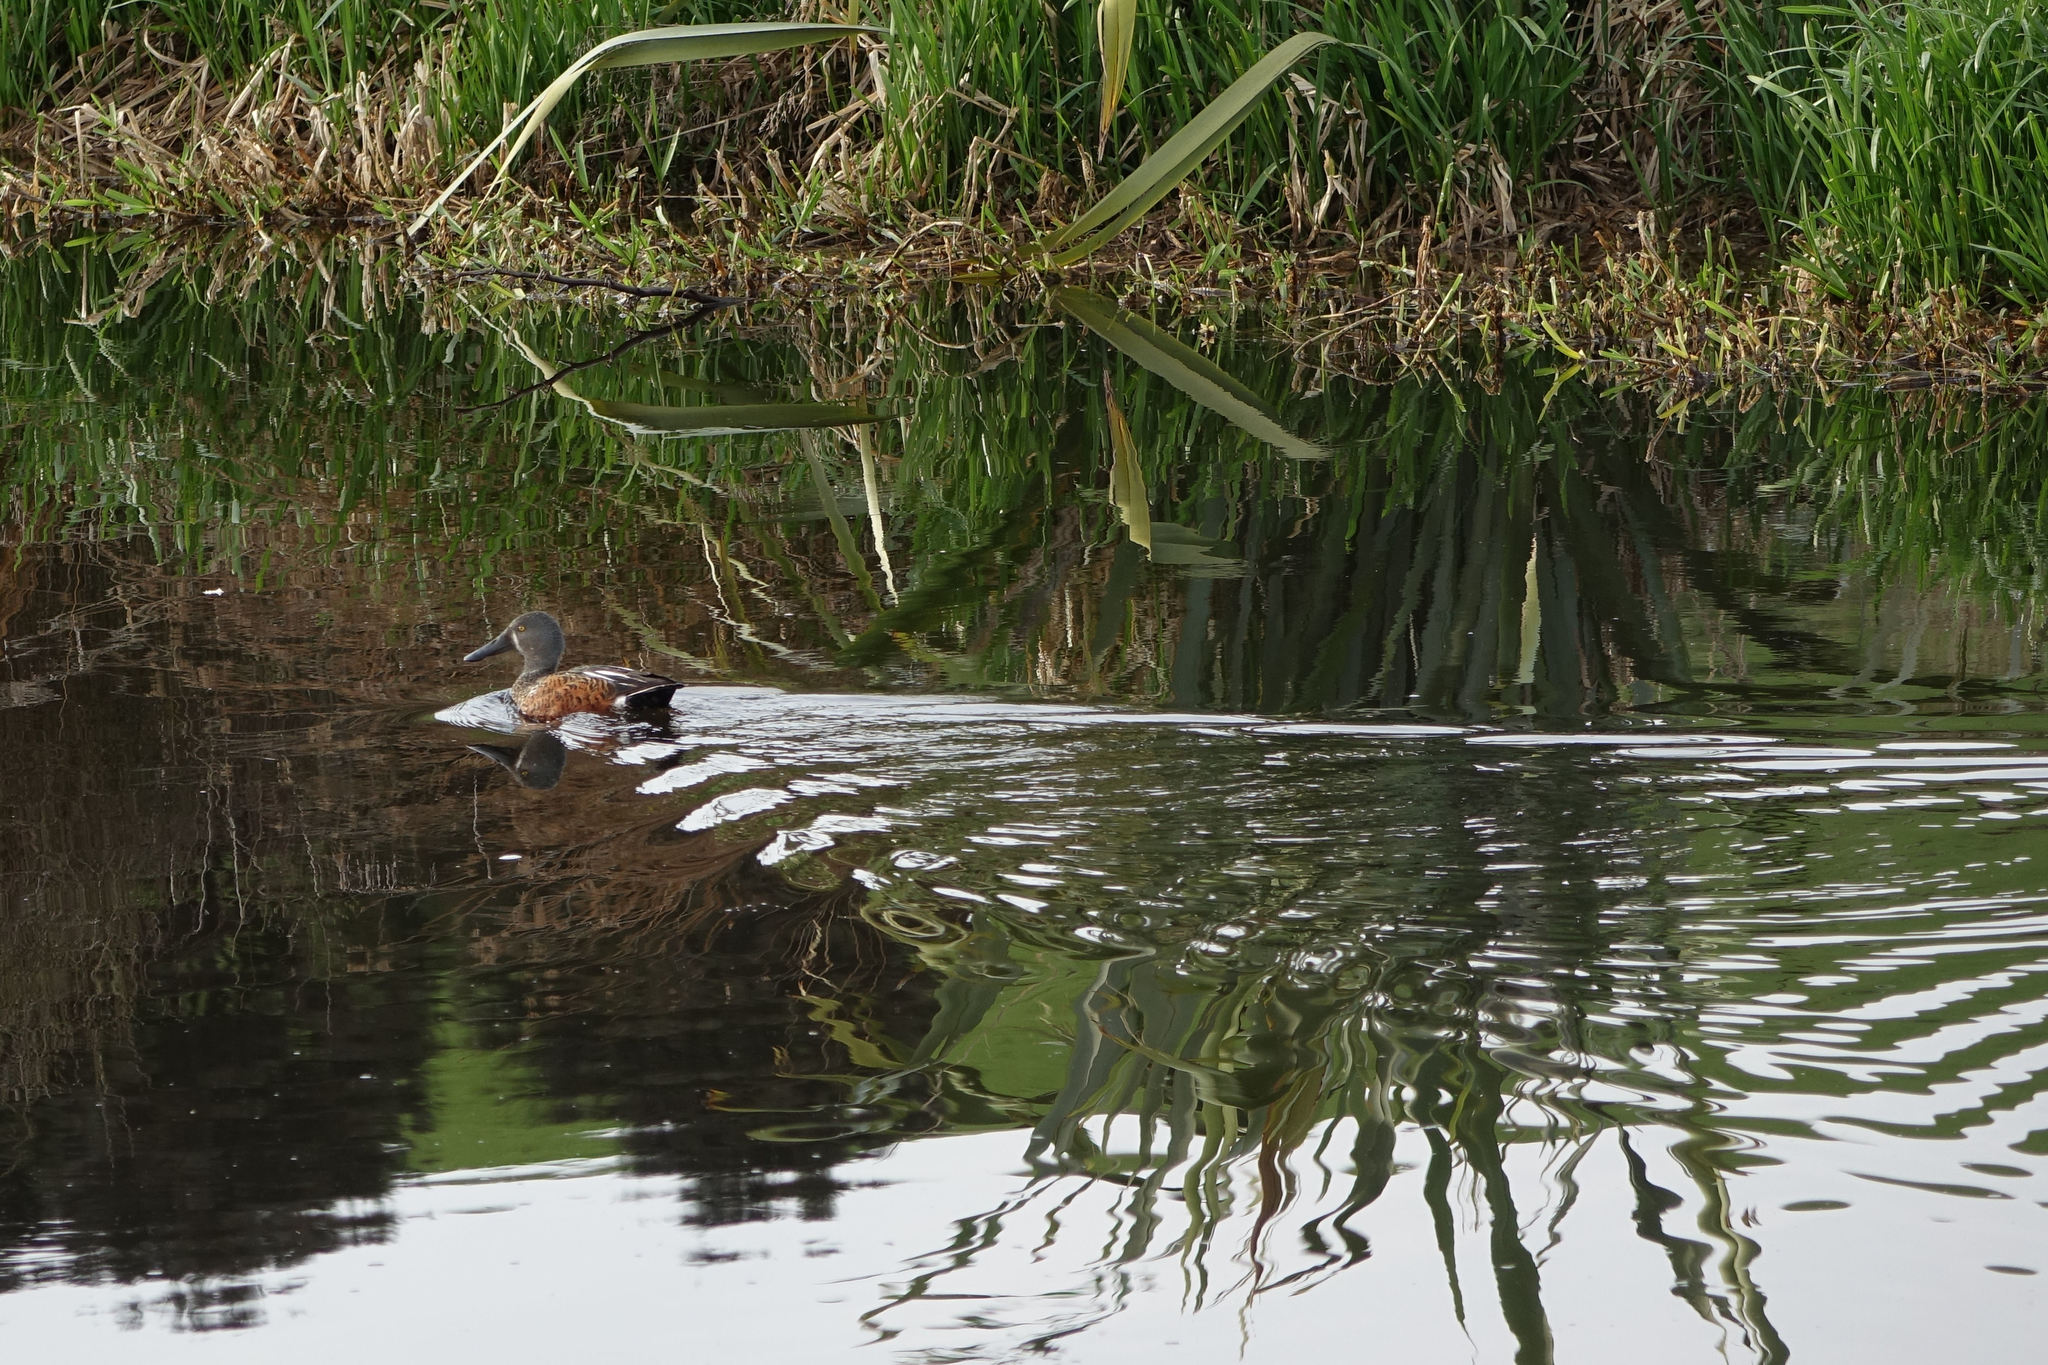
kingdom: Animalia
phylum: Chordata
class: Aves
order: Anseriformes
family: Anatidae
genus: Spatula
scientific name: Spatula rhynchotis
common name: Australian shoveler
